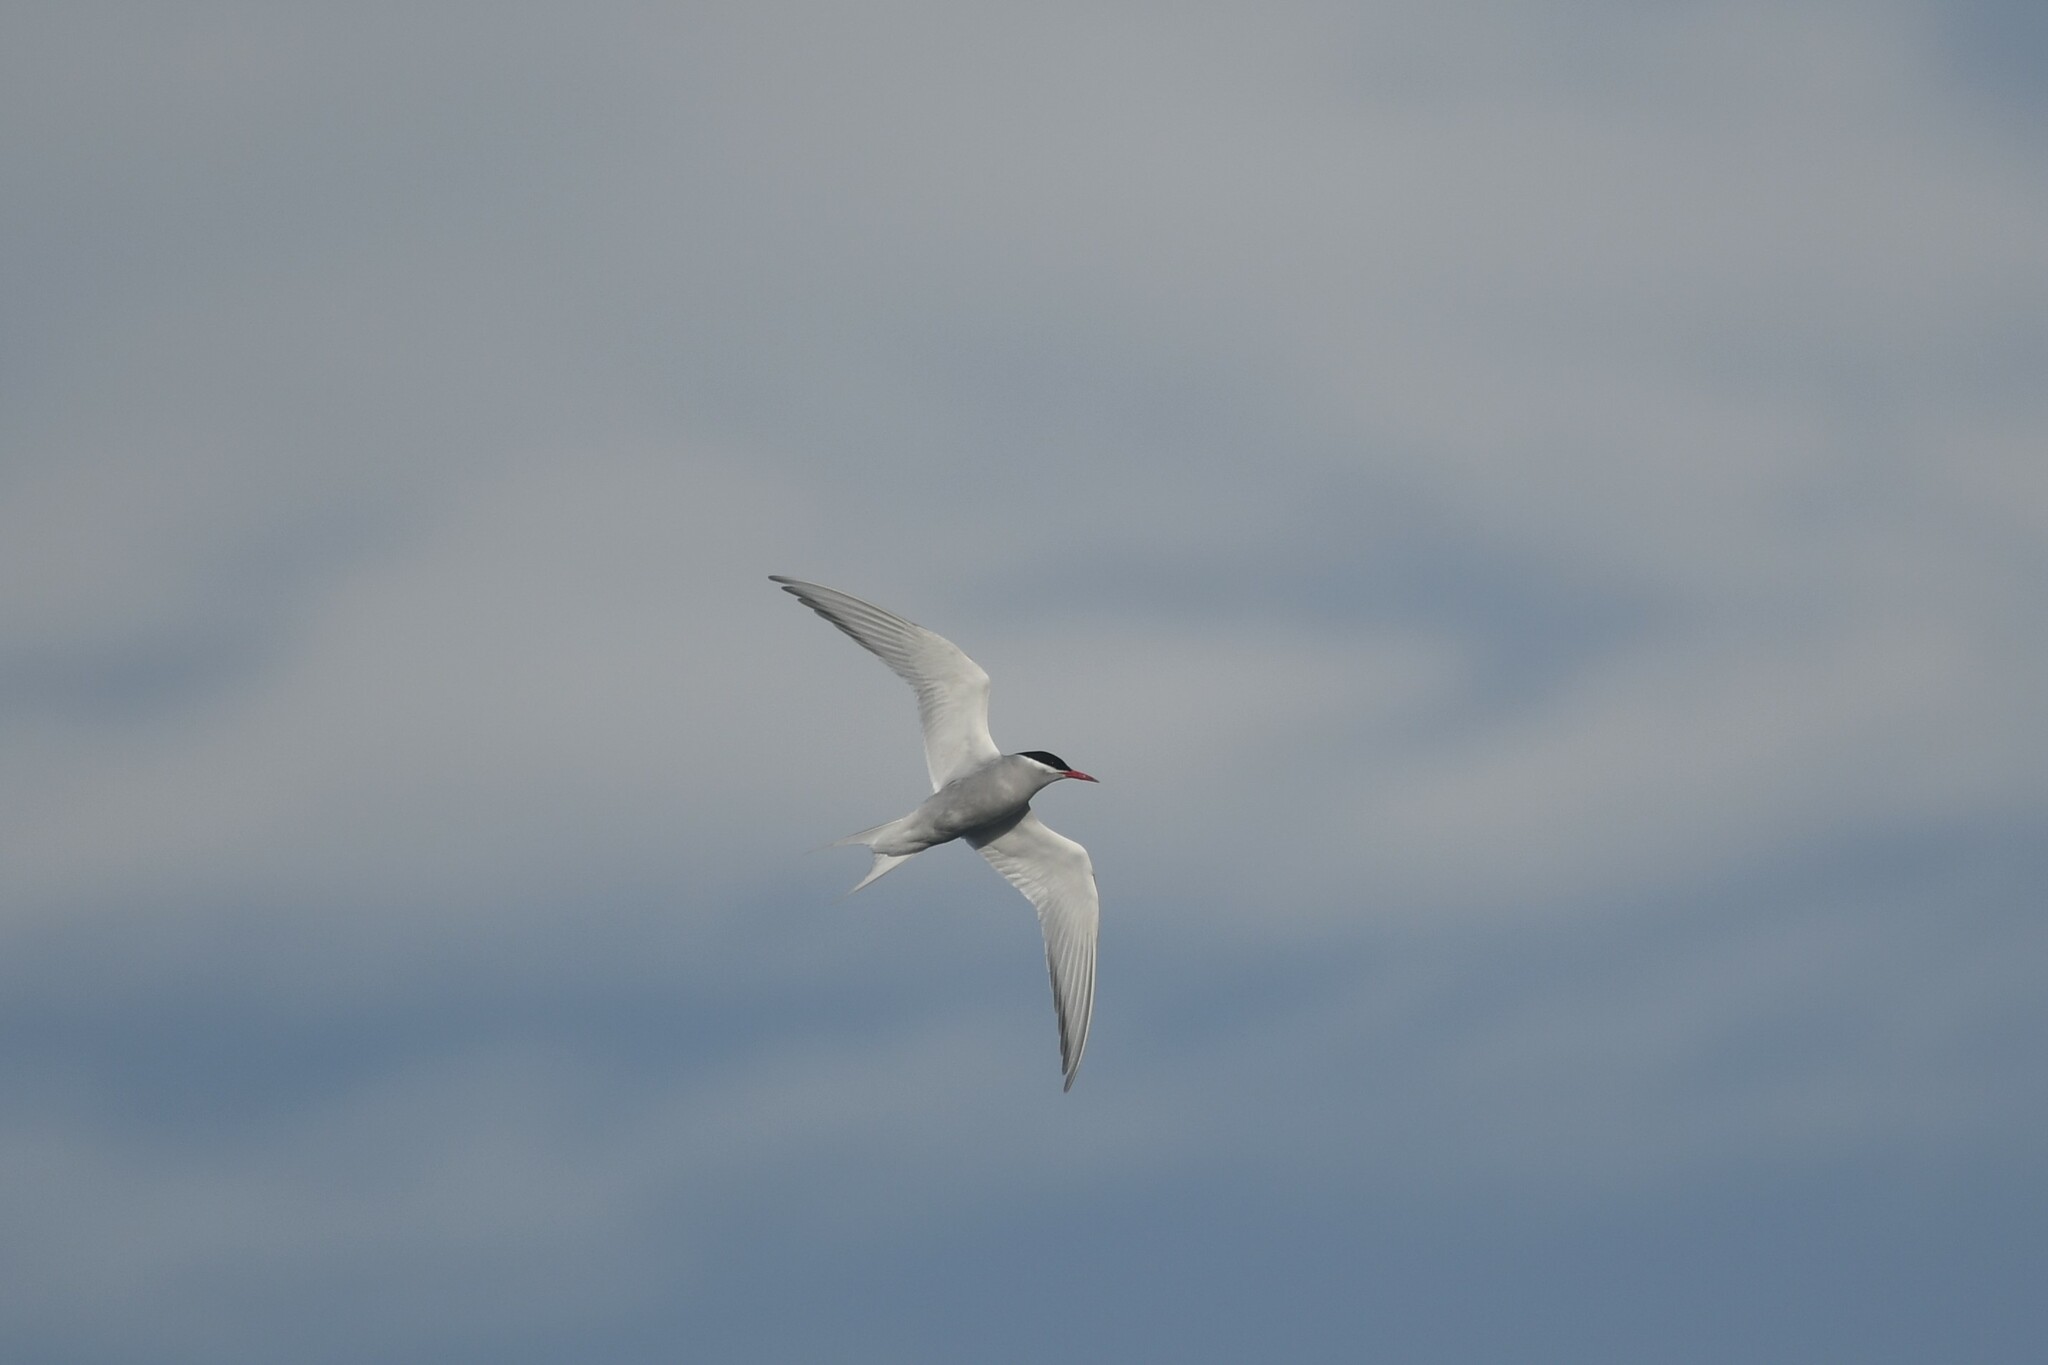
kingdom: Animalia
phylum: Chordata
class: Aves
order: Charadriiformes
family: Laridae
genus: Sterna
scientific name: Sterna vittata
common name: Antarctic tern
